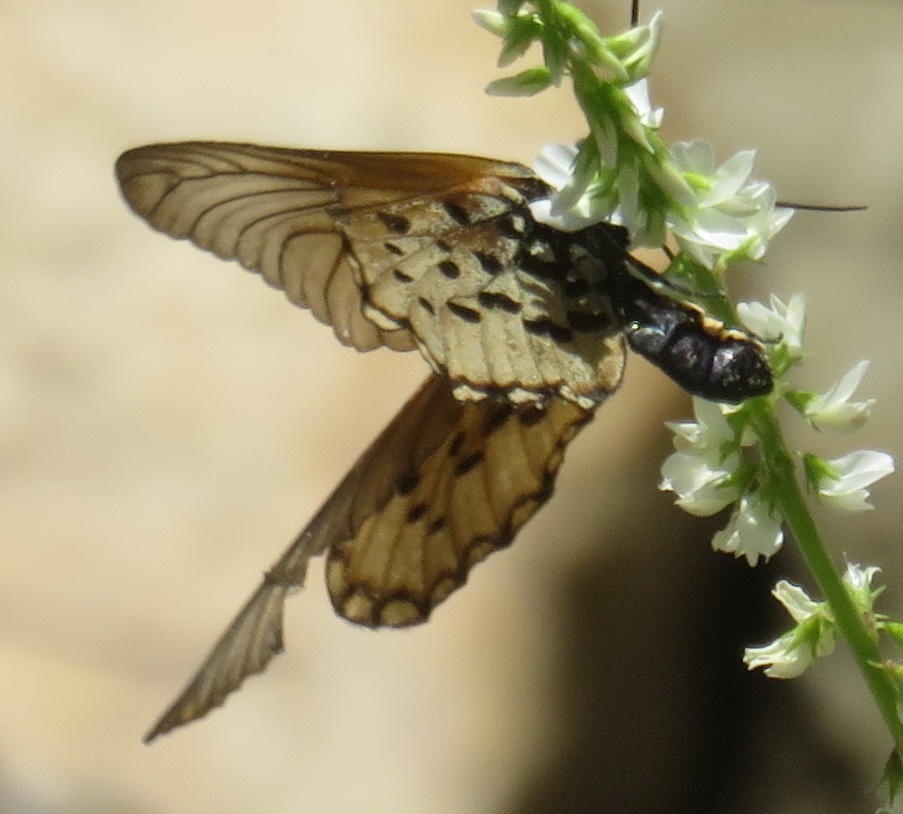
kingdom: Animalia
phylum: Arthropoda
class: Insecta
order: Lepidoptera
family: Nymphalidae
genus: Acraea
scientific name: Acraea horta
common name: Garden acraea
